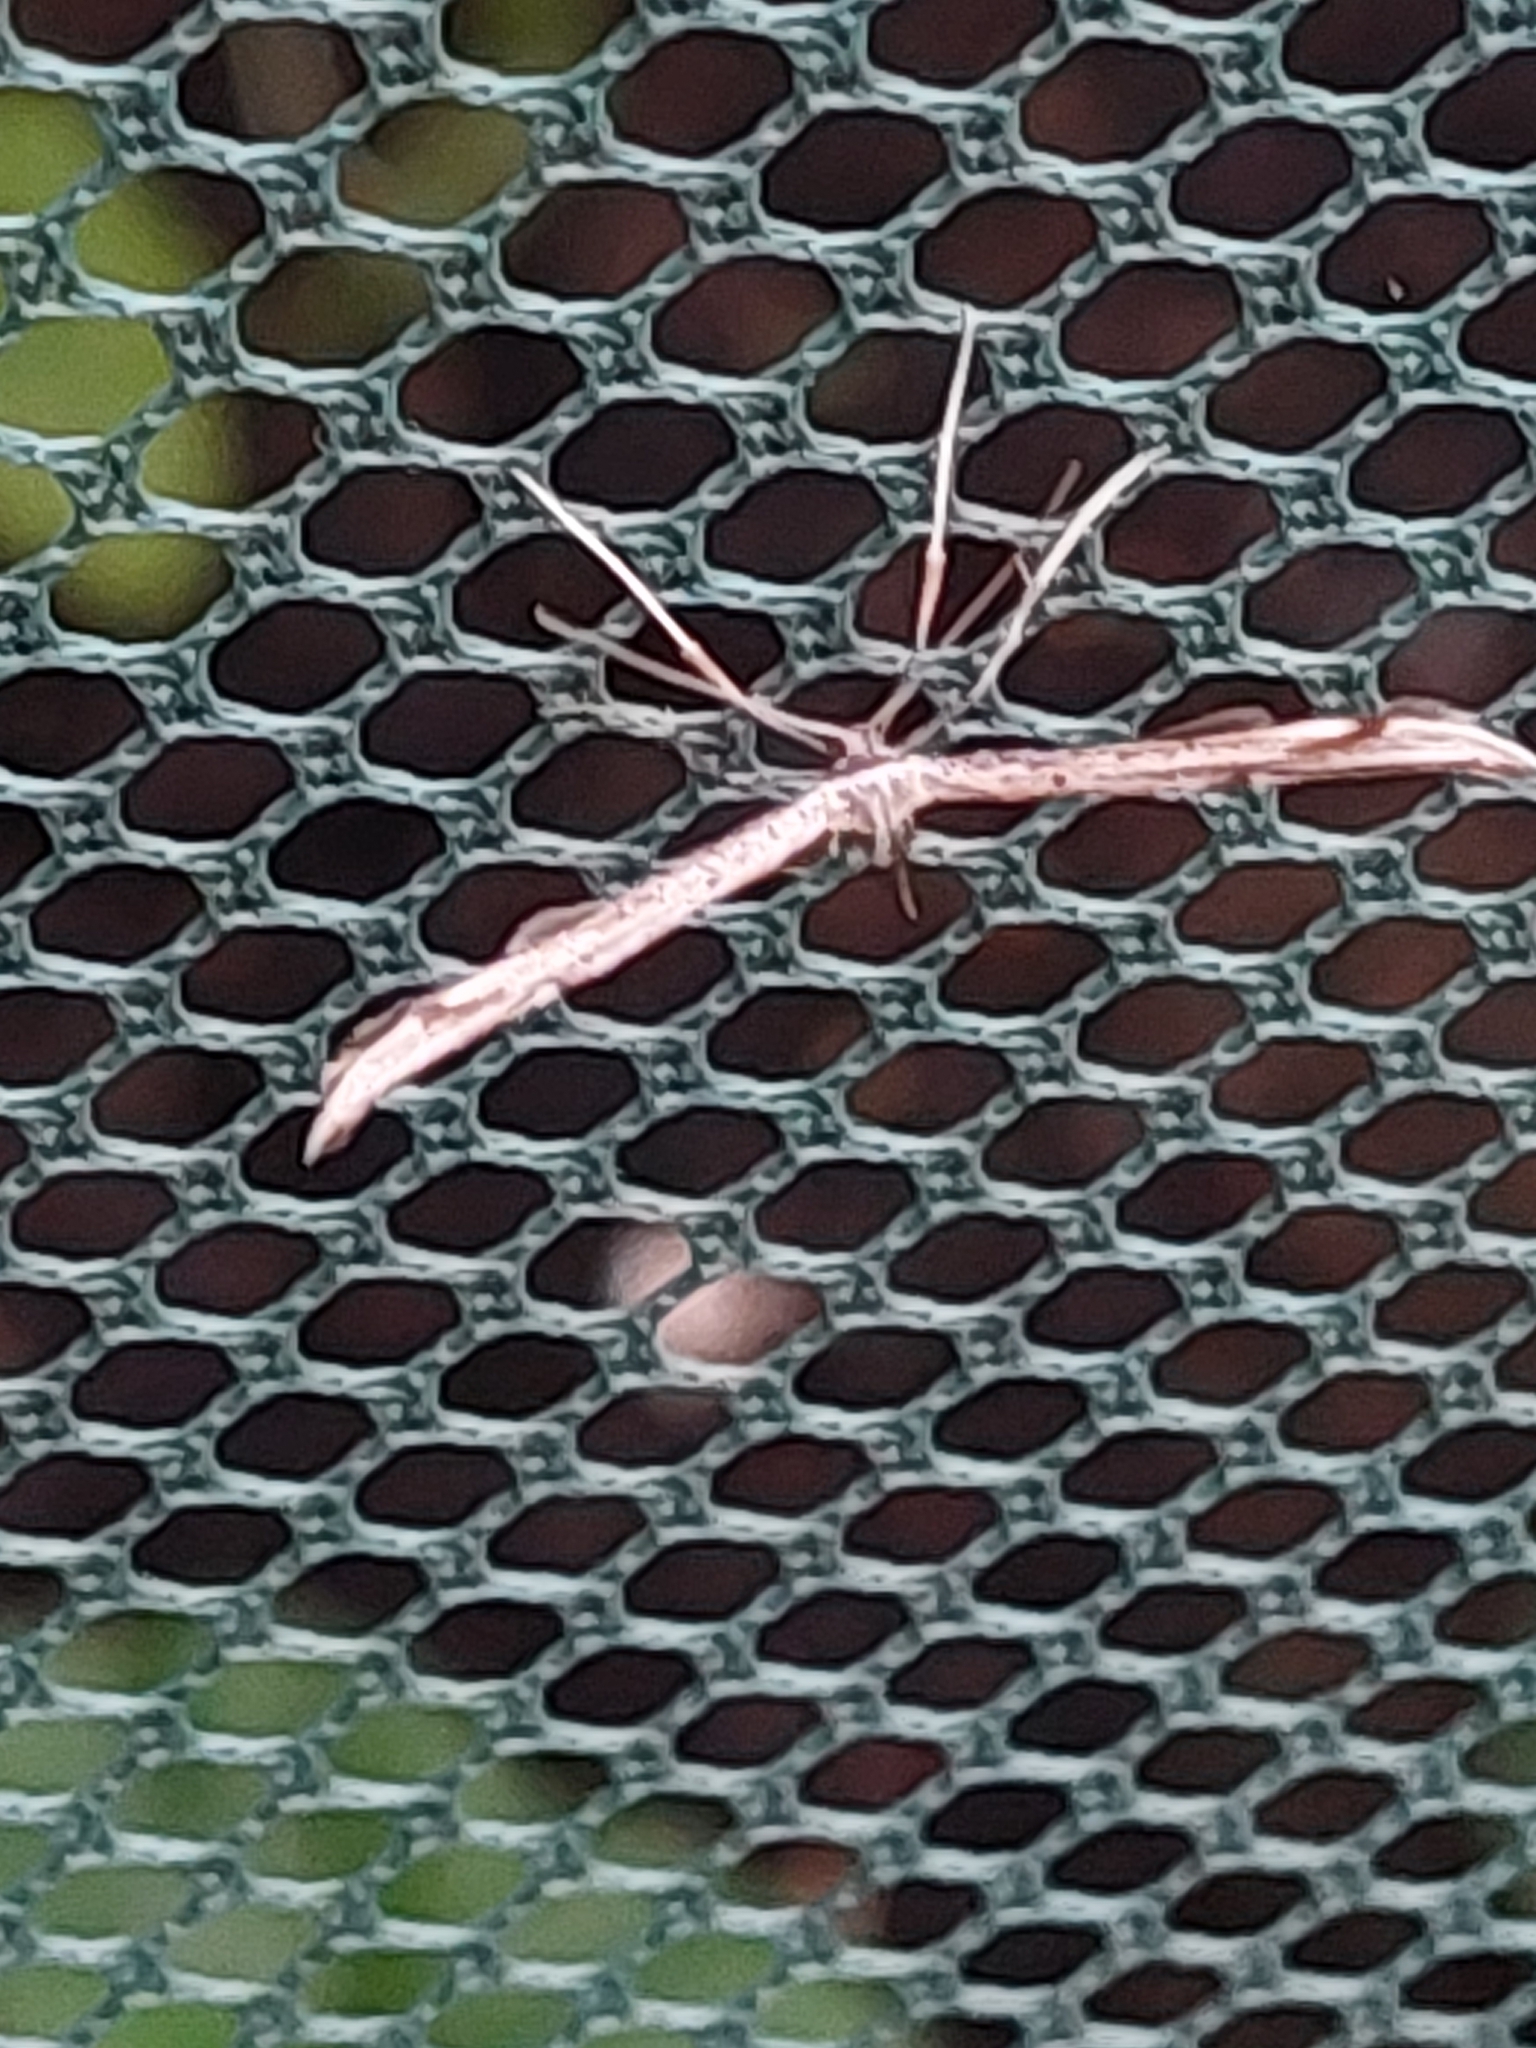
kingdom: Animalia
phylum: Arthropoda
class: Insecta
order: Lepidoptera
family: Pterophoridae
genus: Emmelina
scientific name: Emmelina monodactyla
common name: Common plume
